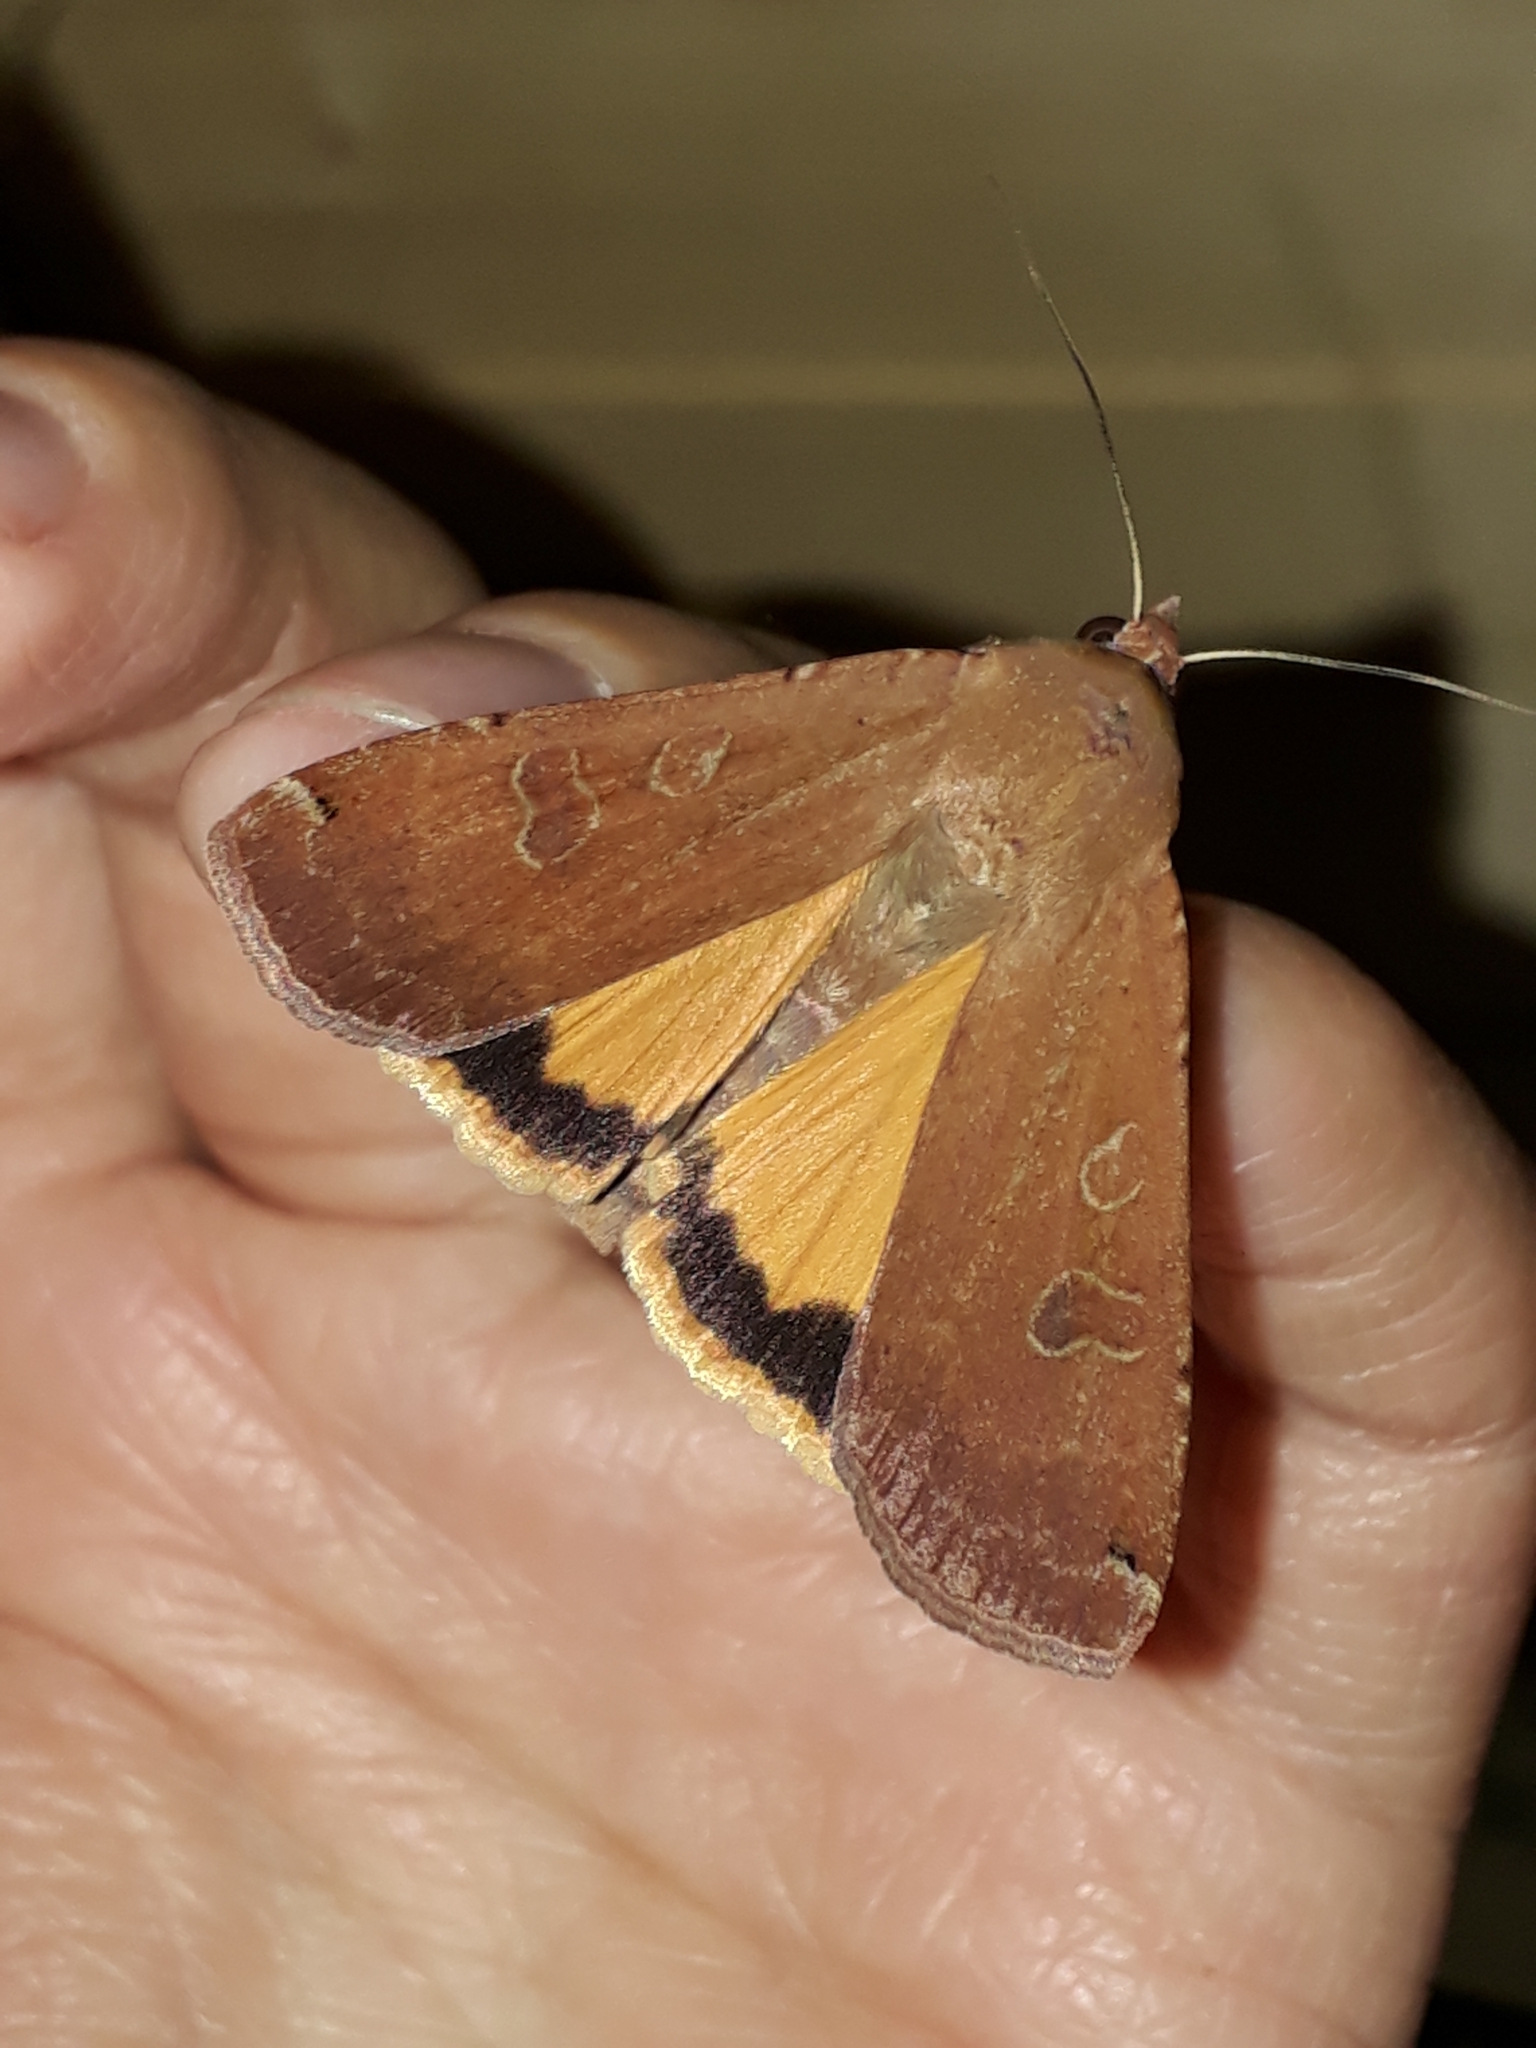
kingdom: Animalia
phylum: Arthropoda
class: Insecta
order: Lepidoptera
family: Noctuidae
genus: Noctua
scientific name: Noctua pronuba
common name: Large yellow underwing
